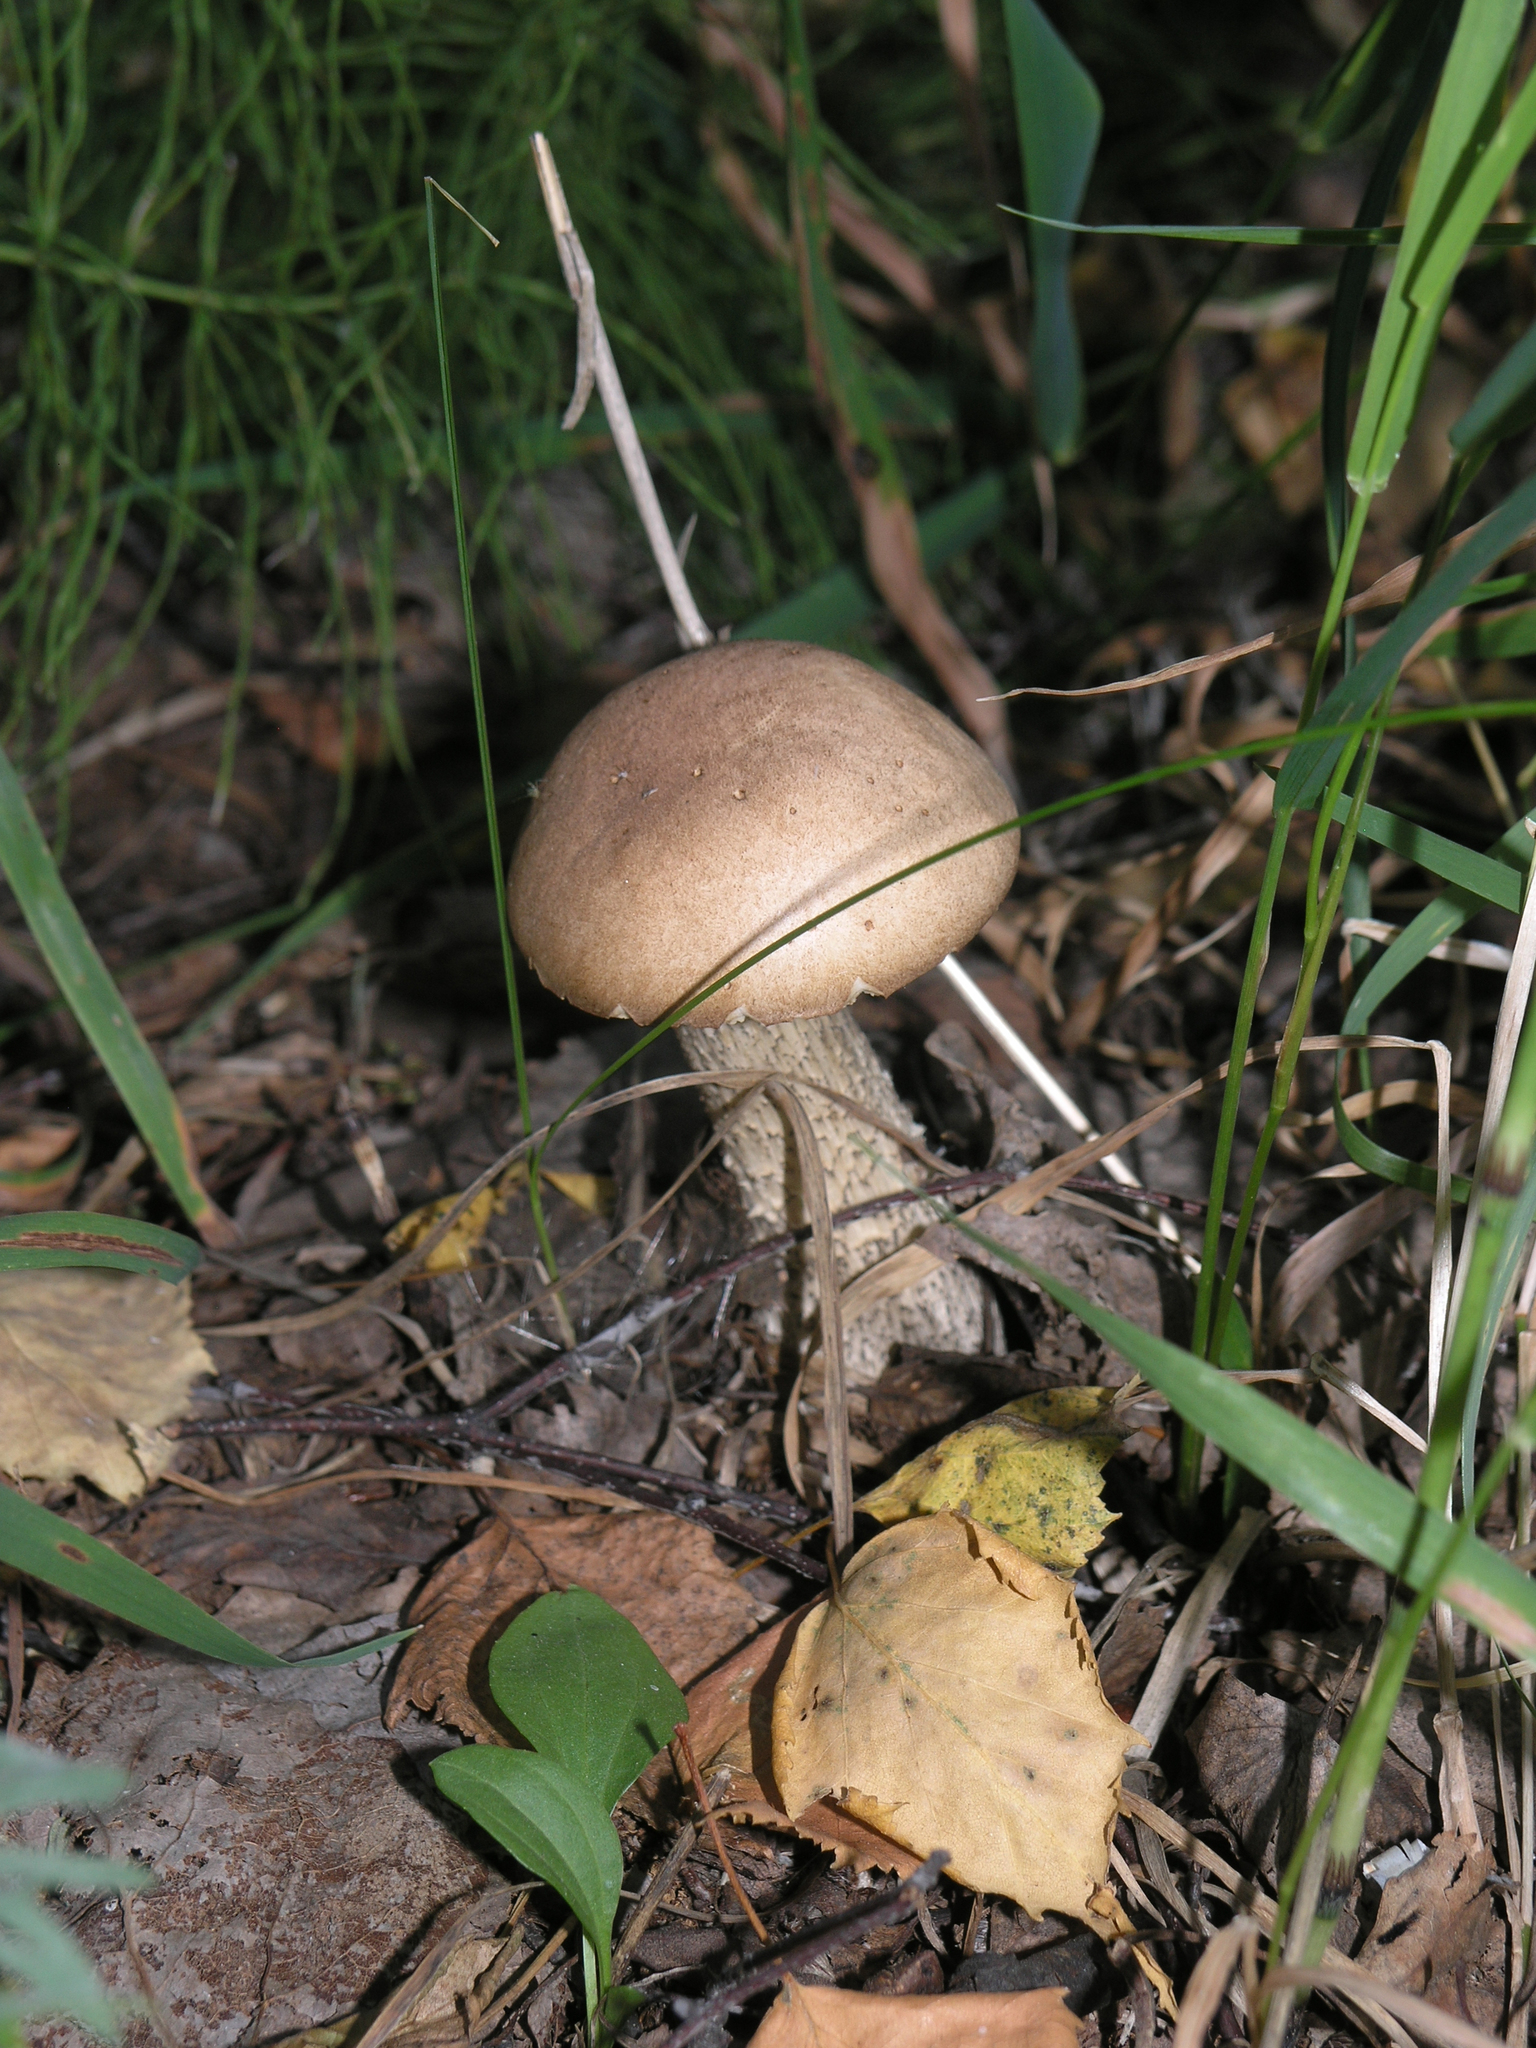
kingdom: Fungi
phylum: Basidiomycota
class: Agaricomycetes
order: Boletales
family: Boletaceae
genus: Leccinum
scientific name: Leccinum scabrum
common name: Blushing bolete
